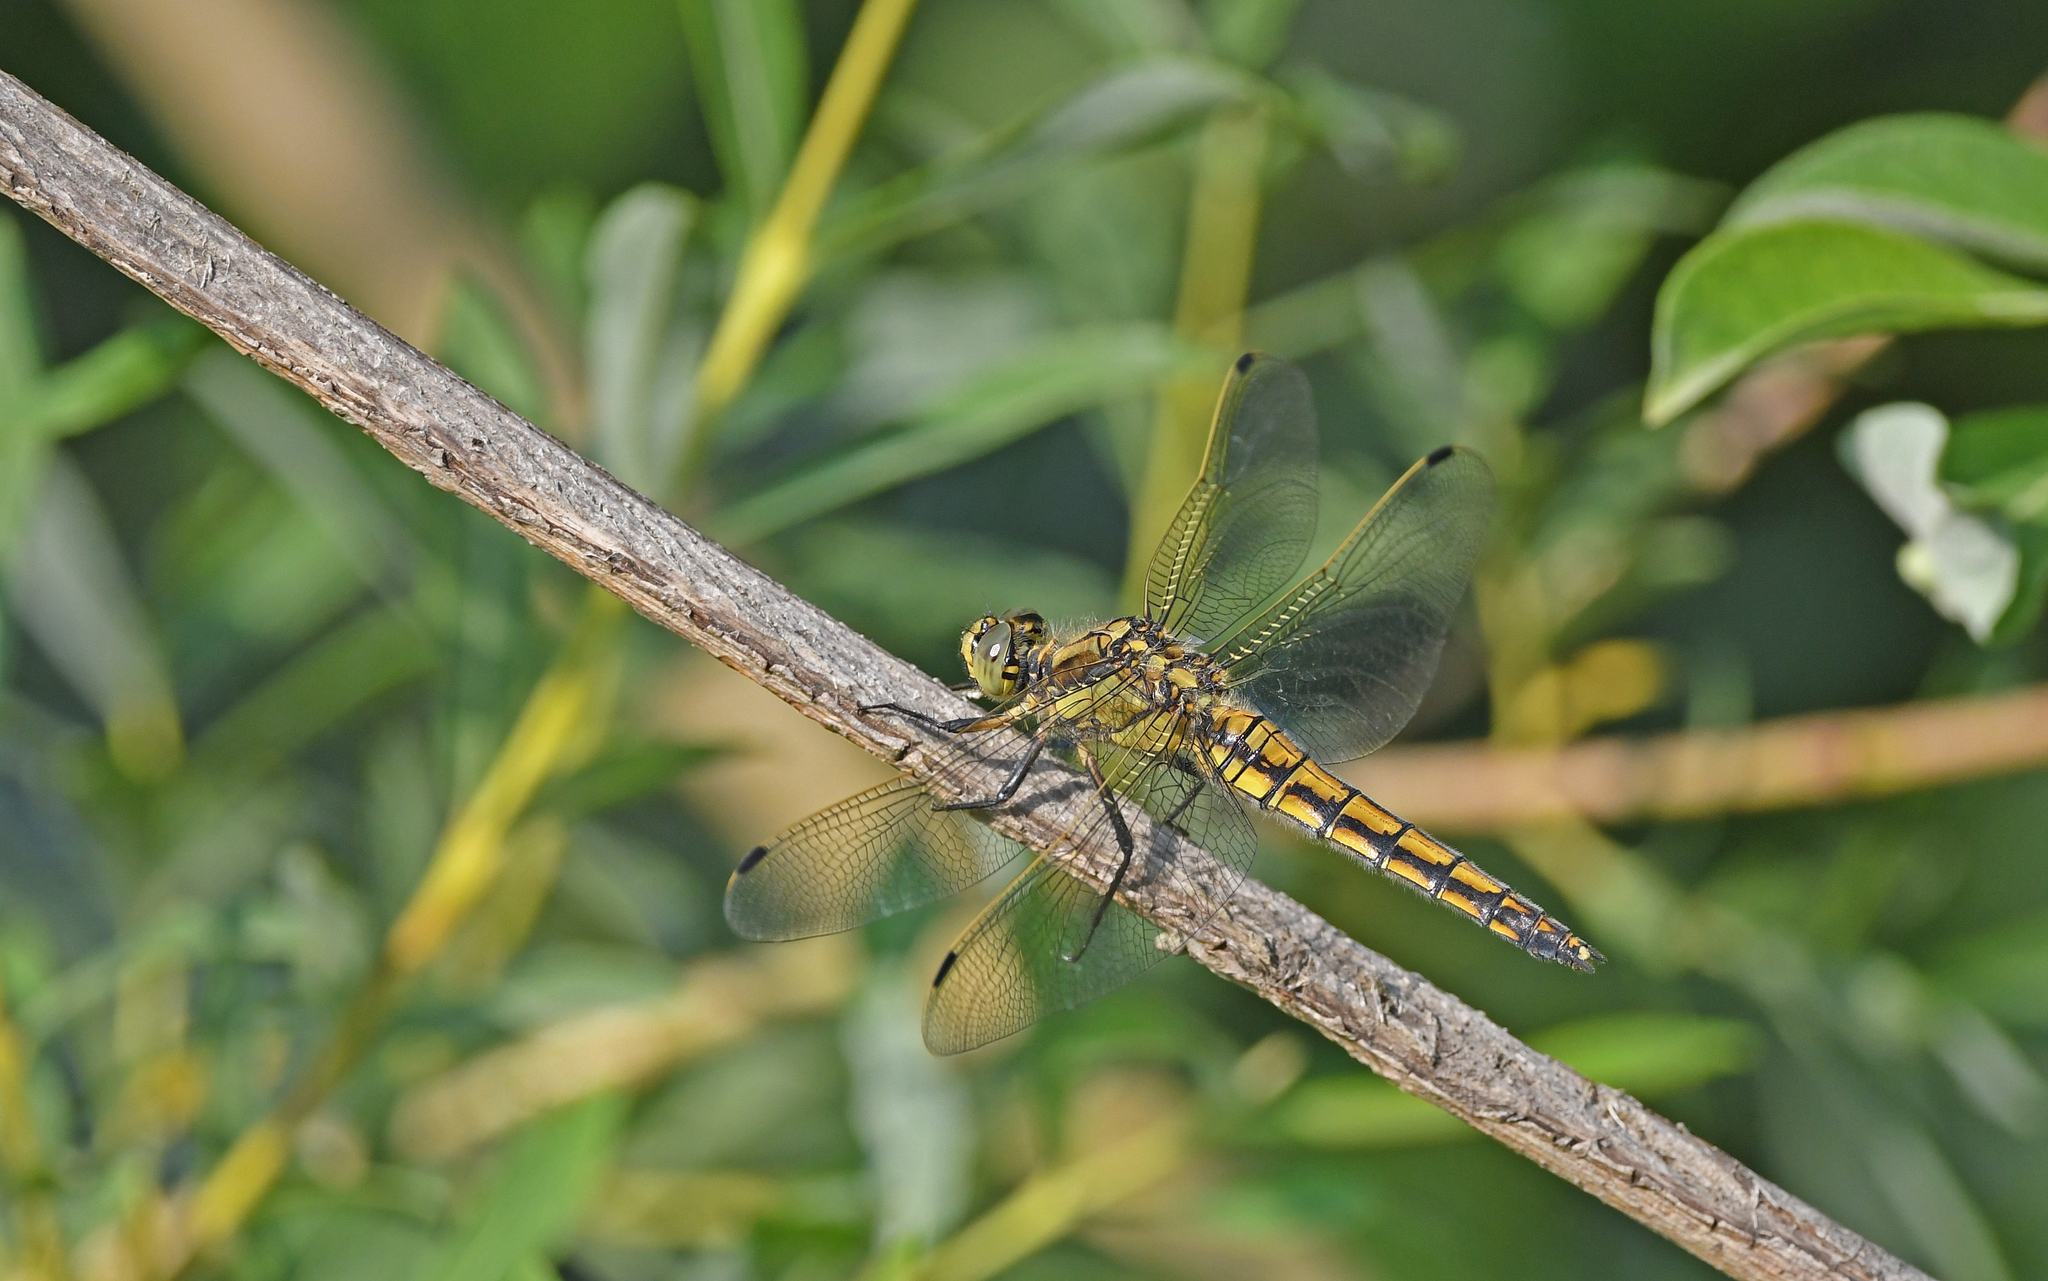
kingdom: Animalia
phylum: Arthropoda
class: Insecta
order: Odonata
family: Libellulidae
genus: Orthetrum
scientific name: Orthetrum cancellatum
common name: Black-tailed skimmer
